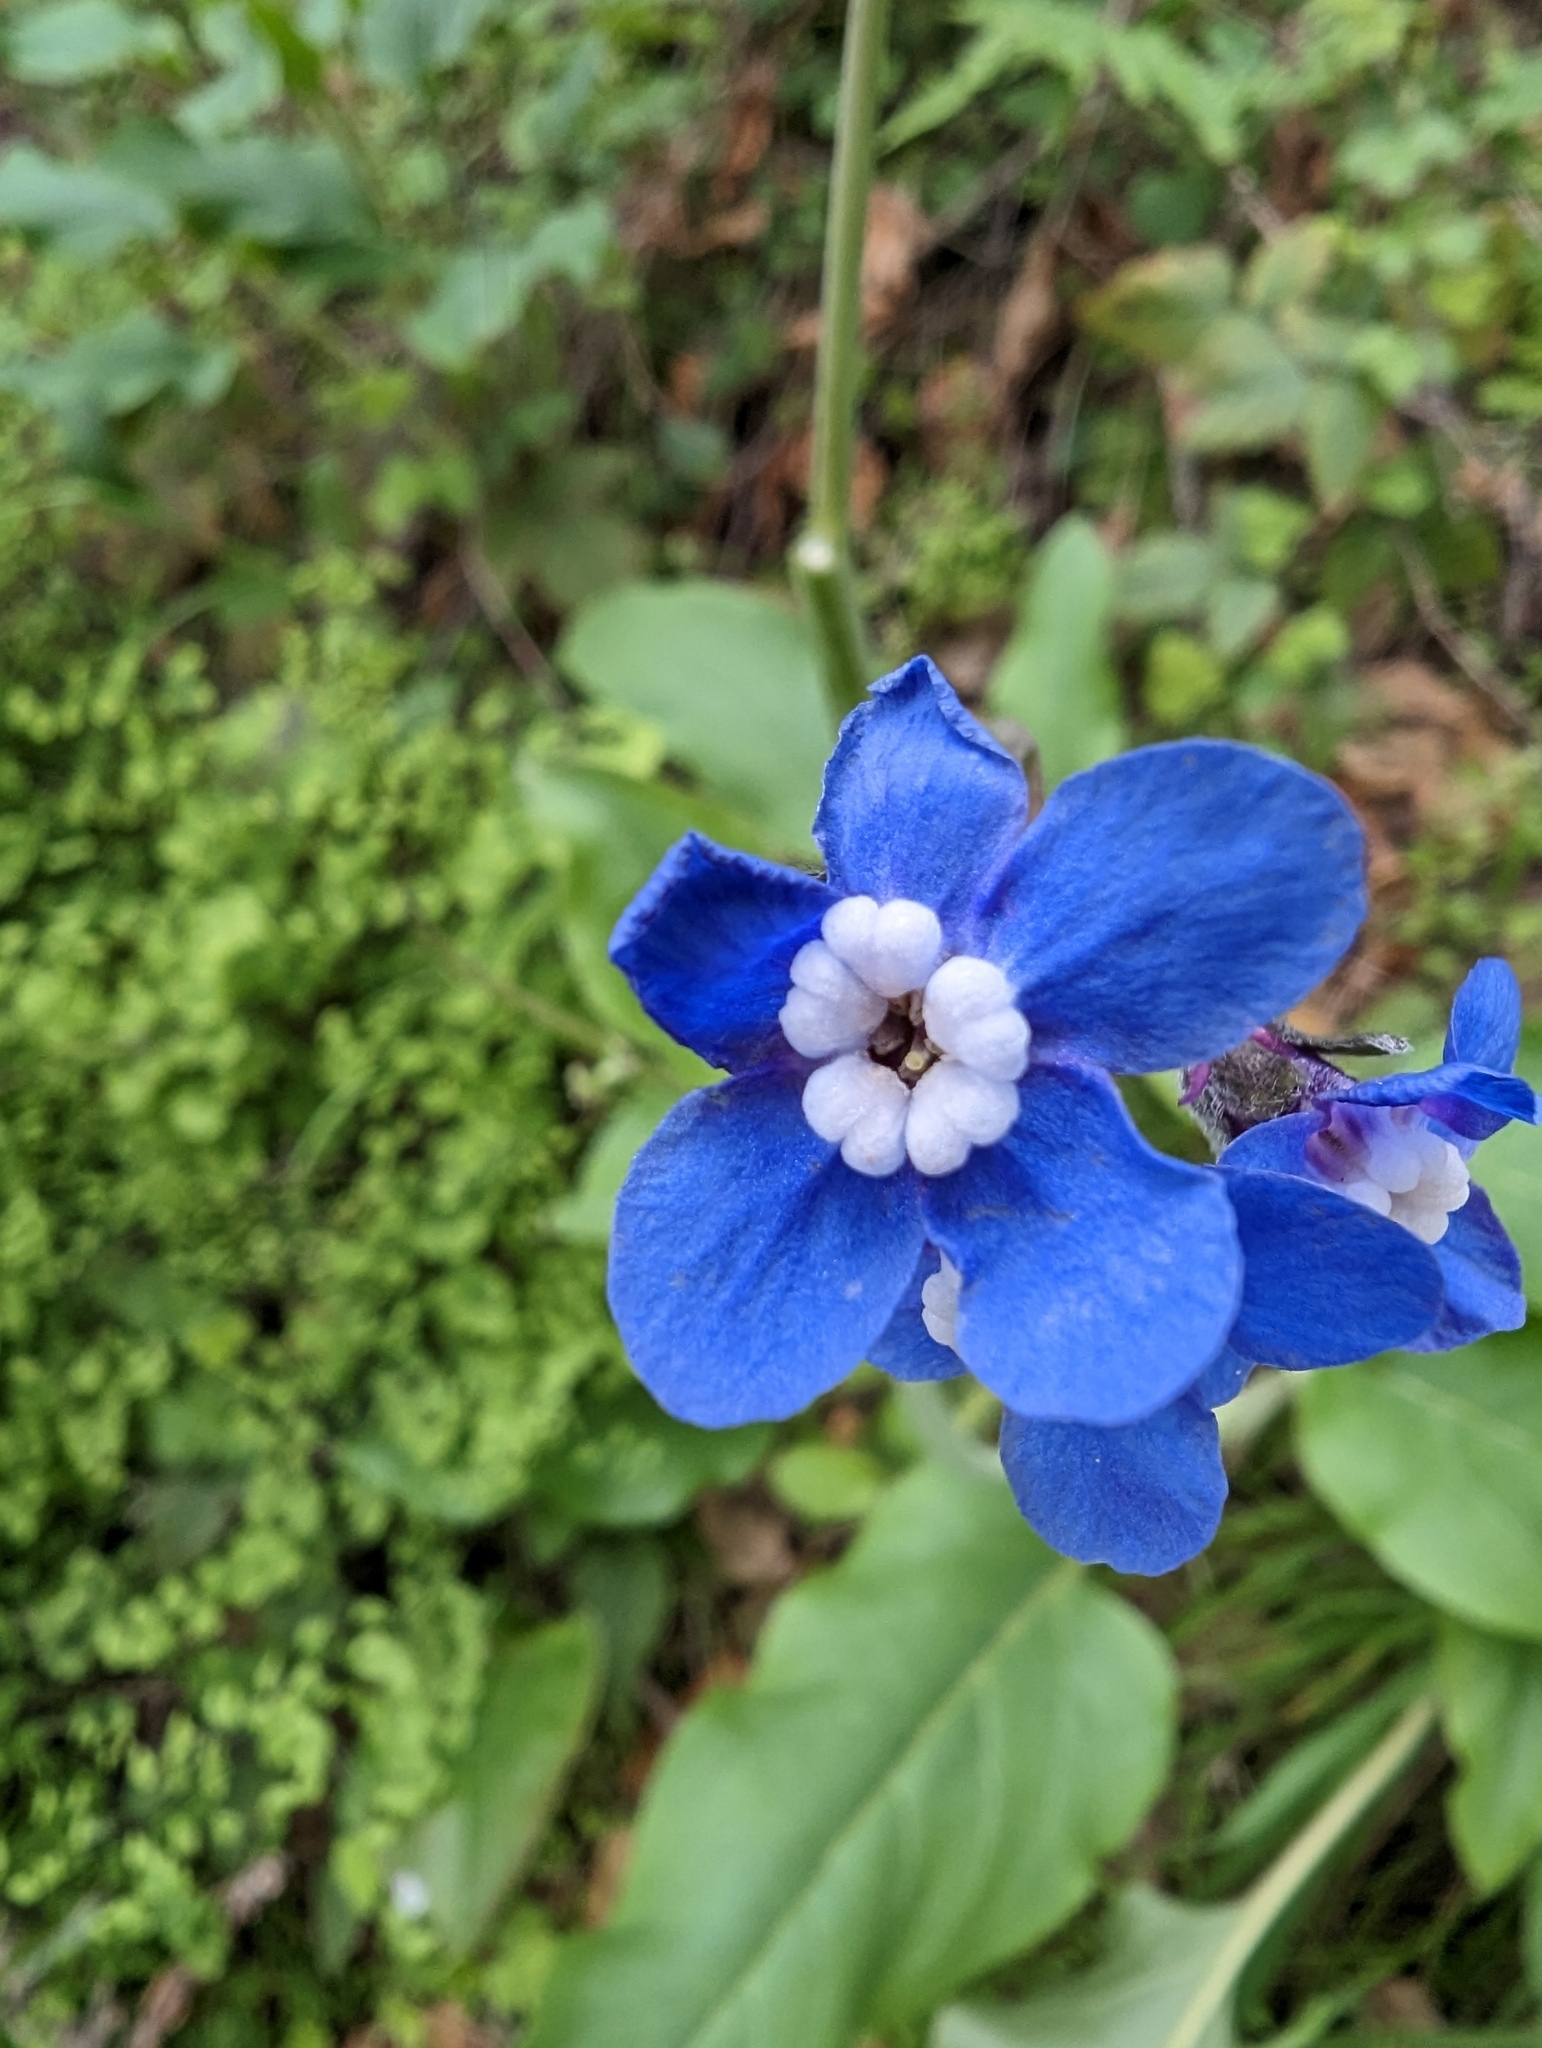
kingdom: Plantae
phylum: Tracheophyta
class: Magnoliopsida
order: Boraginales
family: Boraginaceae
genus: Adelinia
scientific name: Adelinia grande
